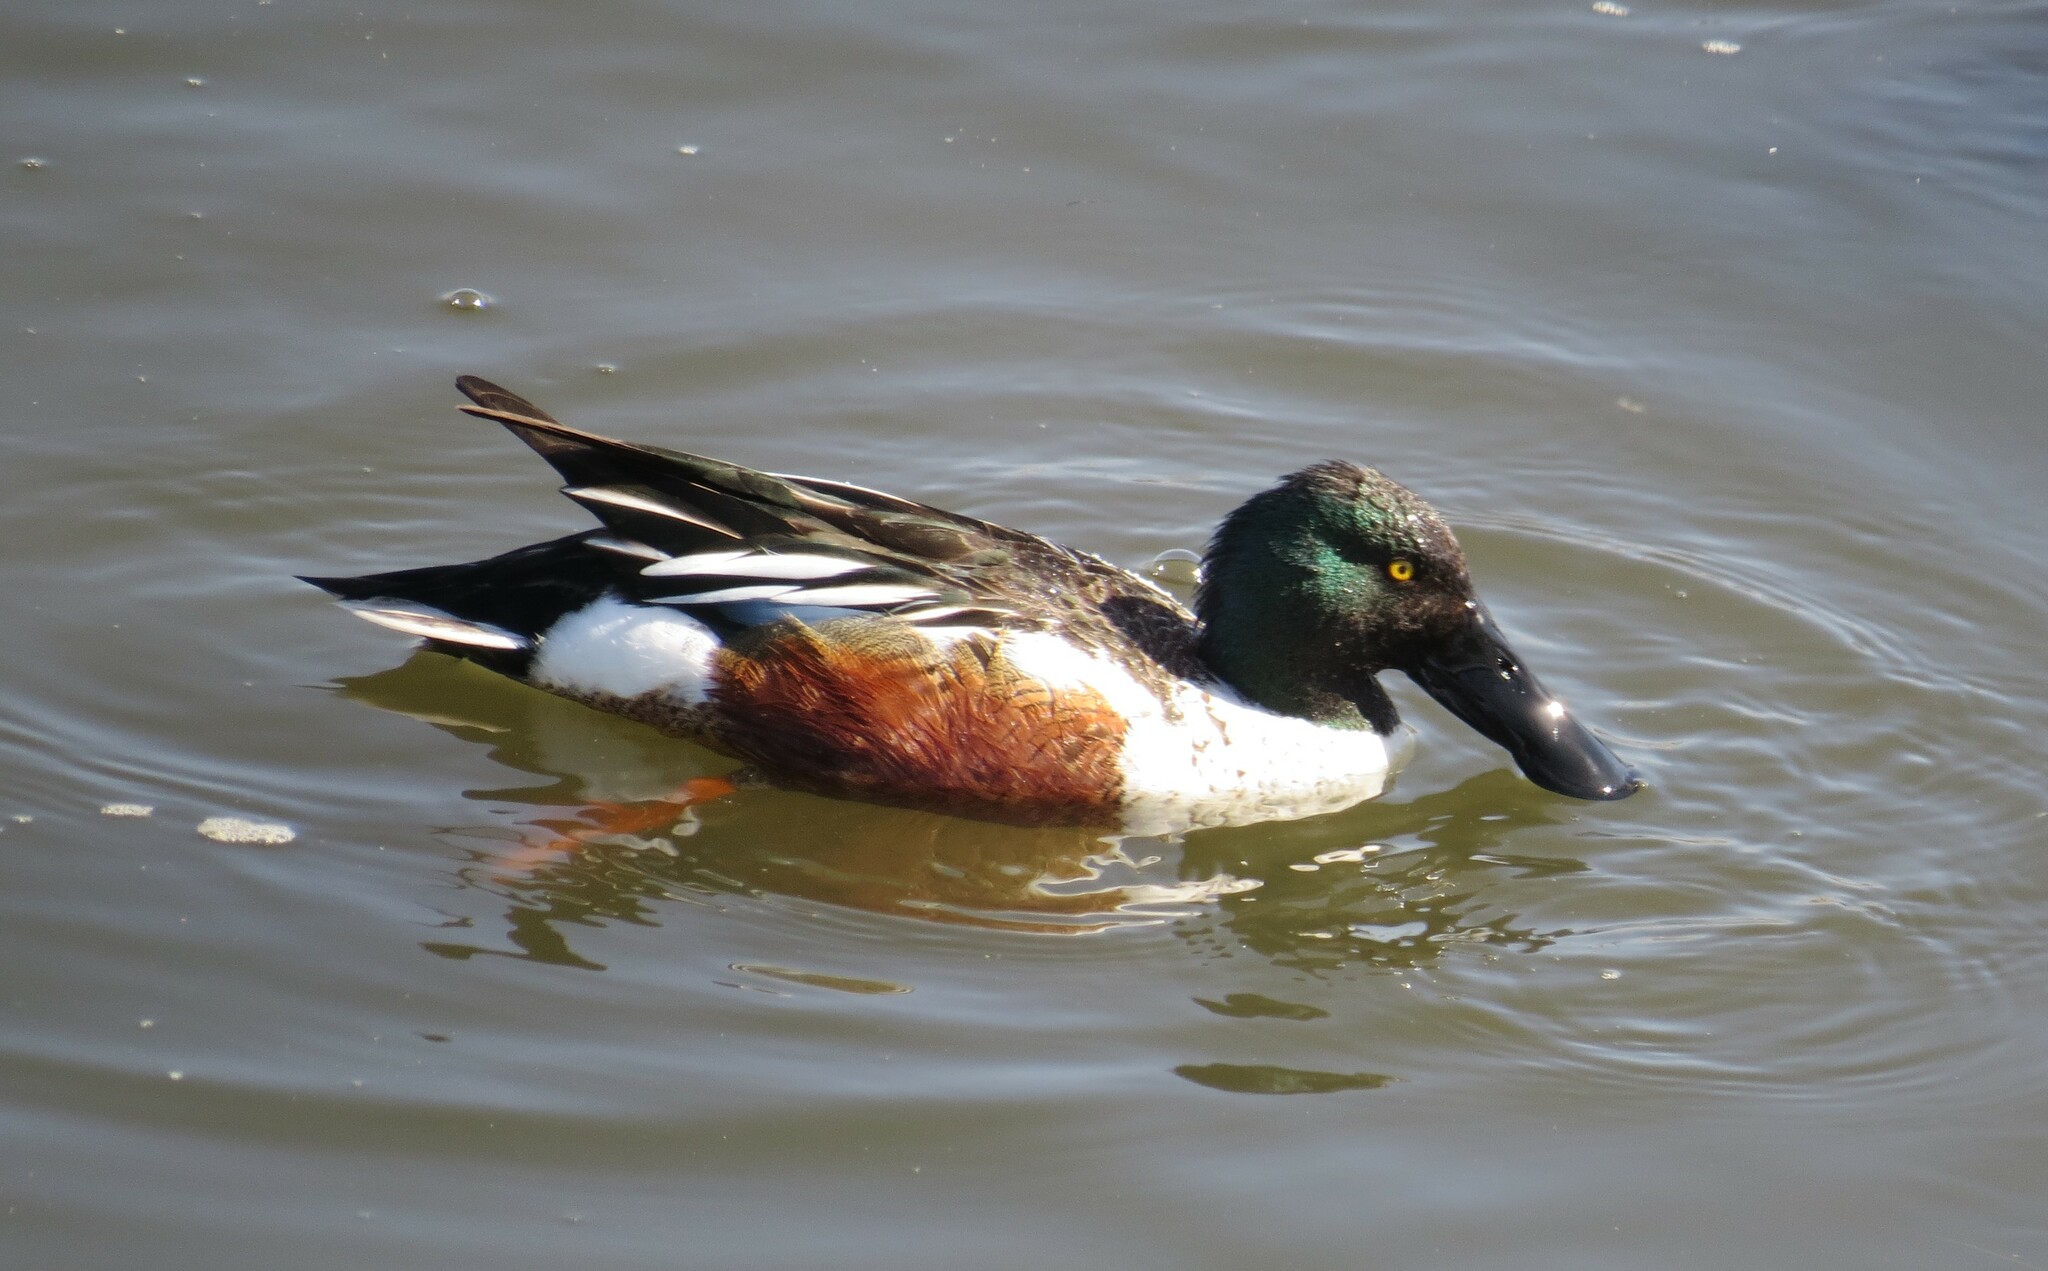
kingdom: Animalia
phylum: Chordata
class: Aves
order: Anseriformes
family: Anatidae
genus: Spatula
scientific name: Spatula clypeata
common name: Northern shoveler
